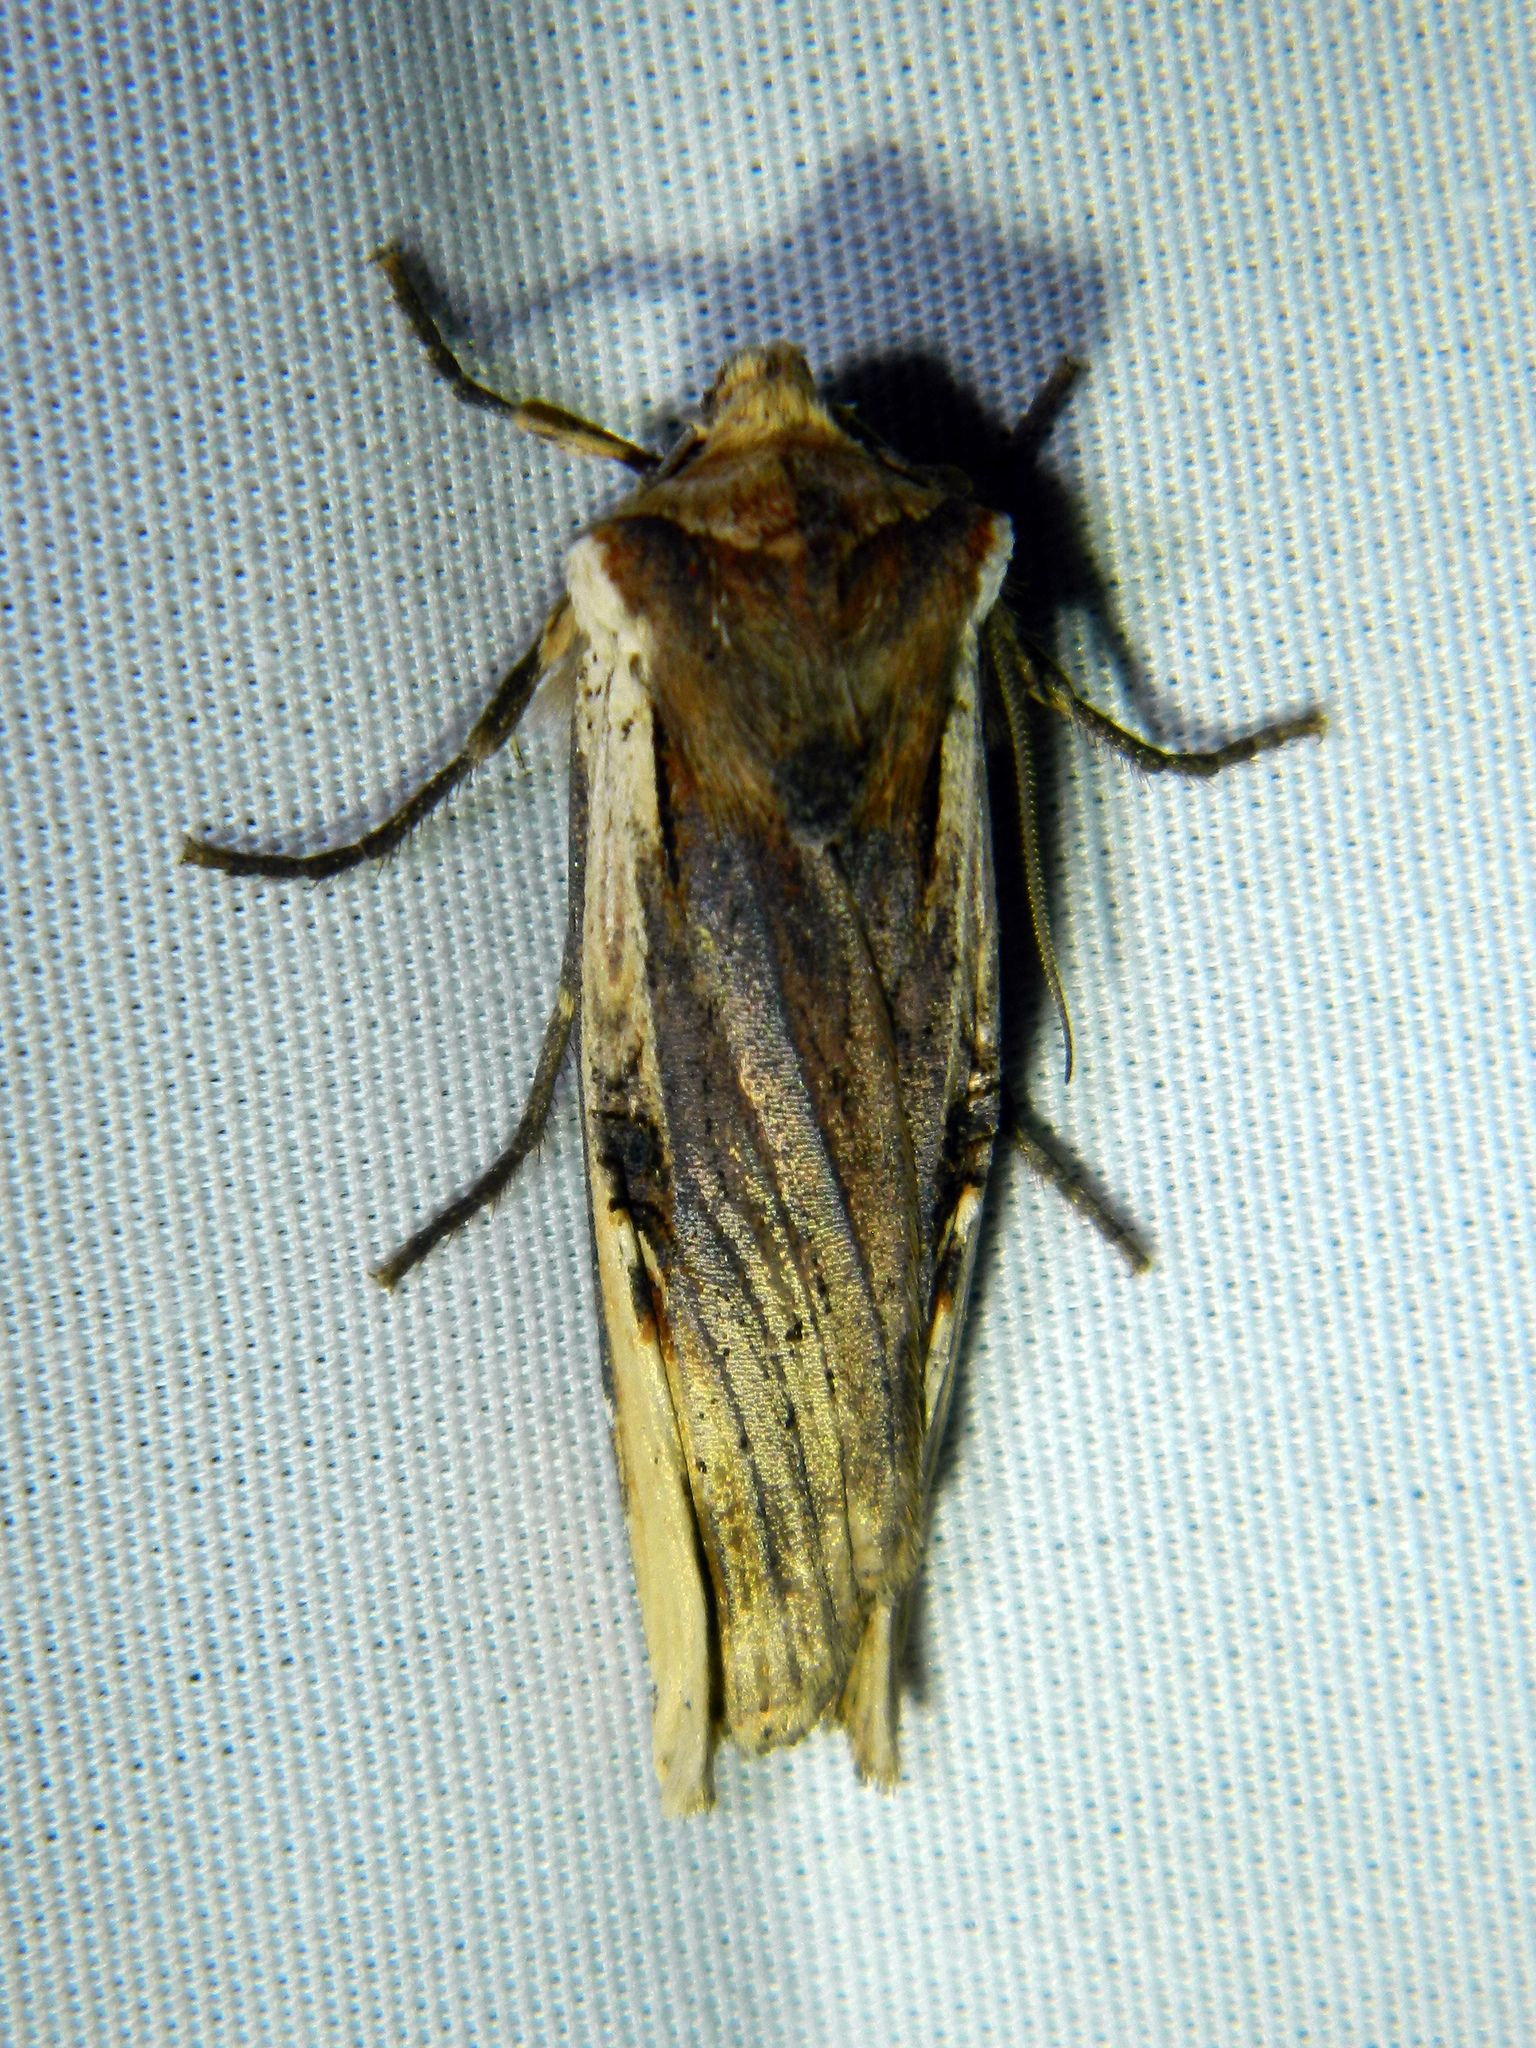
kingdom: Animalia
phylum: Arthropoda
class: Insecta
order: Lepidoptera
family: Noctuidae
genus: Xylena
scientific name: Xylena curvimacula
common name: Dot-and-dash swordgrass moth
